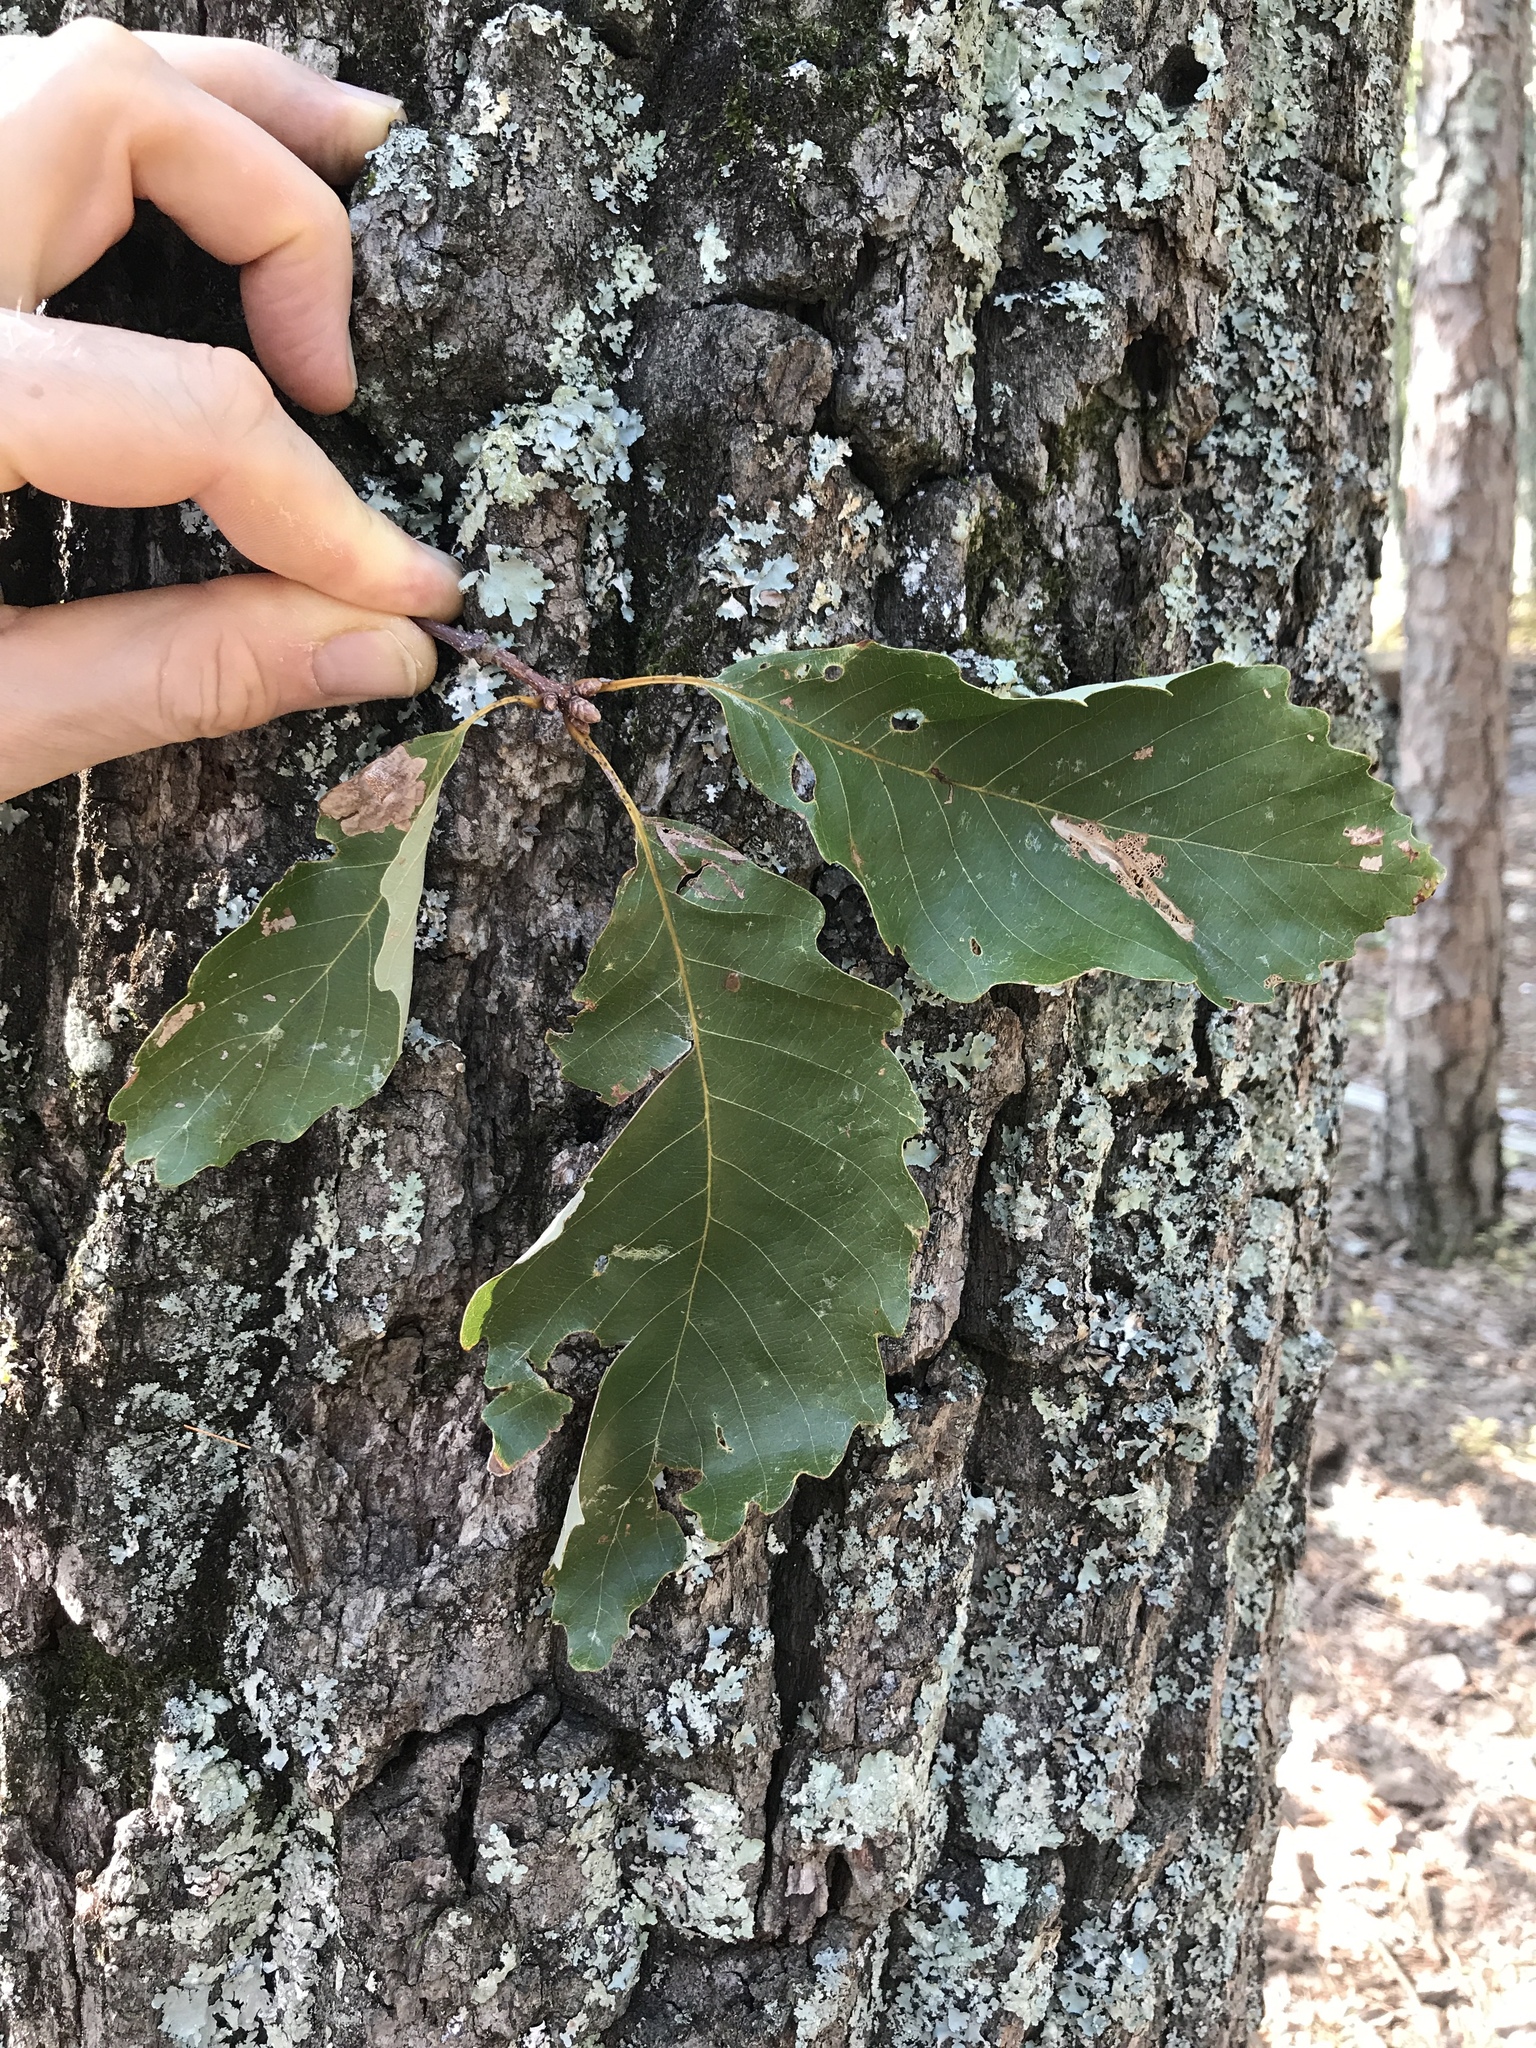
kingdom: Plantae
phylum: Tracheophyta
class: Magnoliopsida
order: Fagales
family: Fagaceae
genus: Quercus
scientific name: Quercus montana
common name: Chestnut oak
